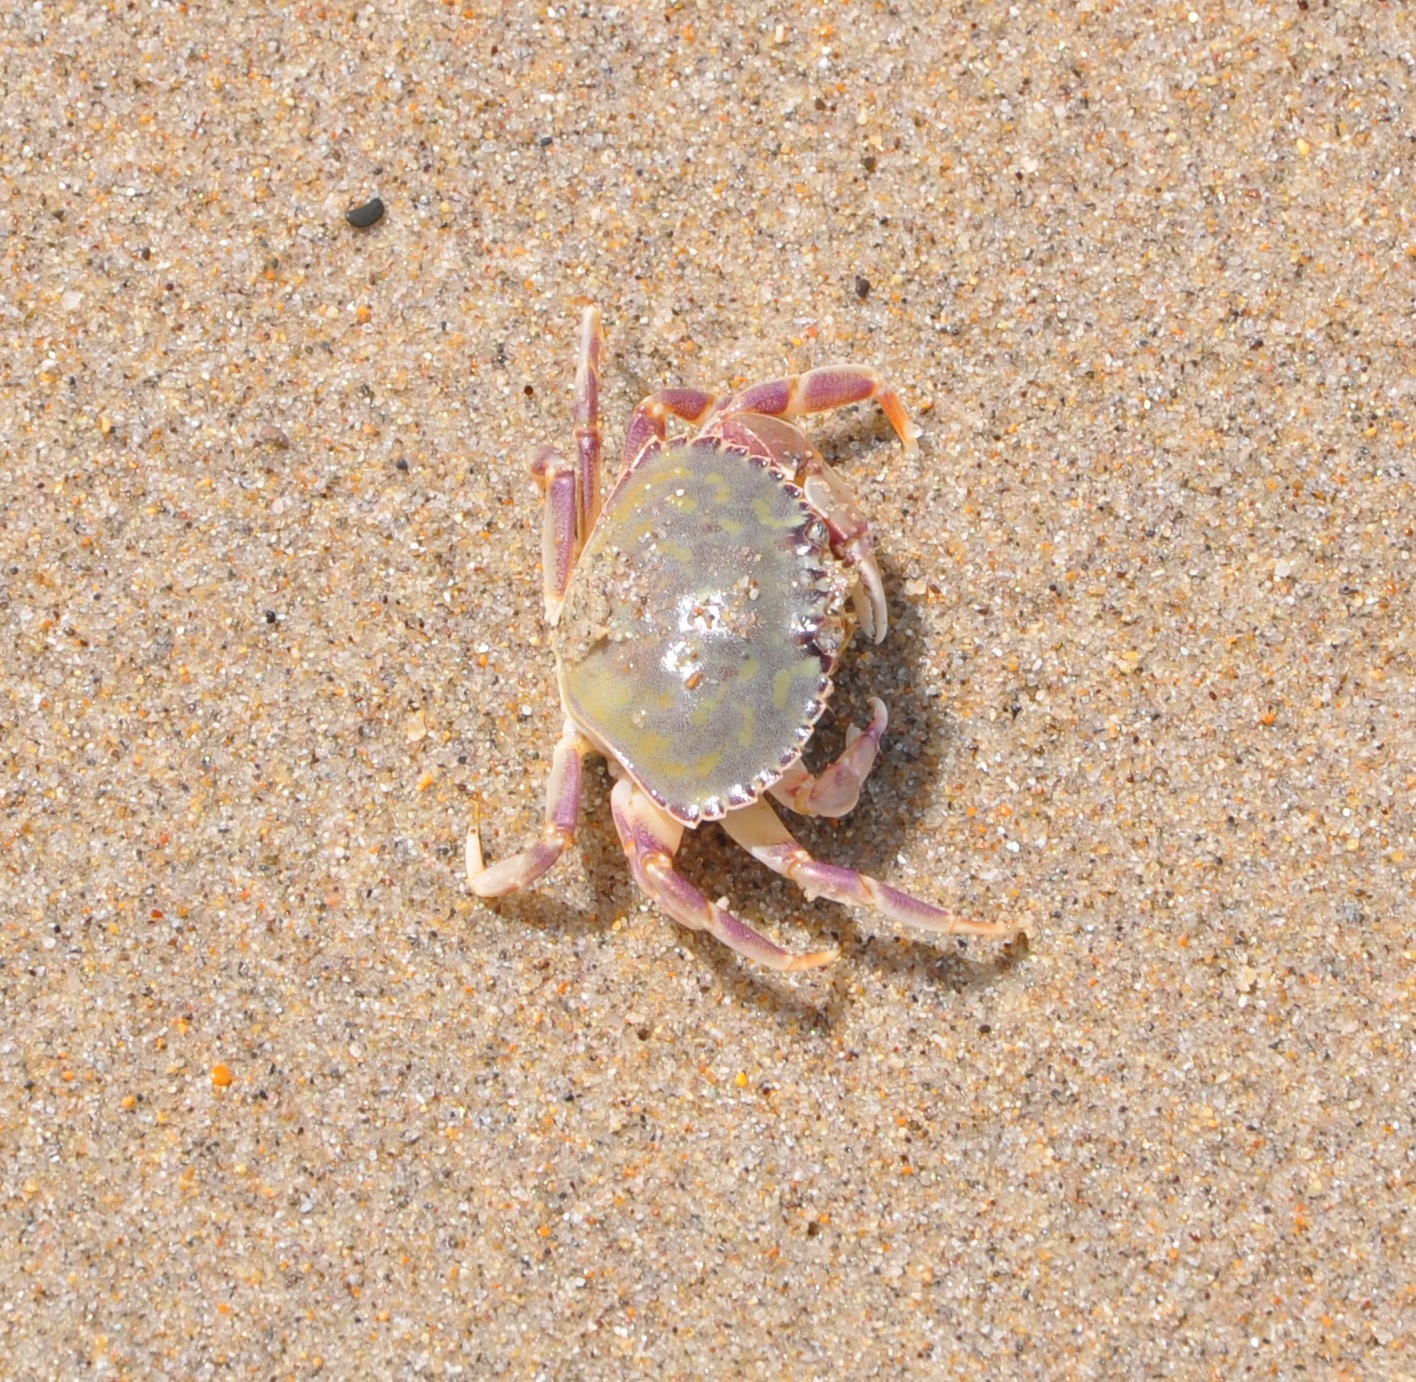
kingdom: Animalia
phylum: Arthropoda
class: Malacostraca
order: Decapoda
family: Cancridae
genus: Metacarcinus
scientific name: Metacarcinus gracilis
